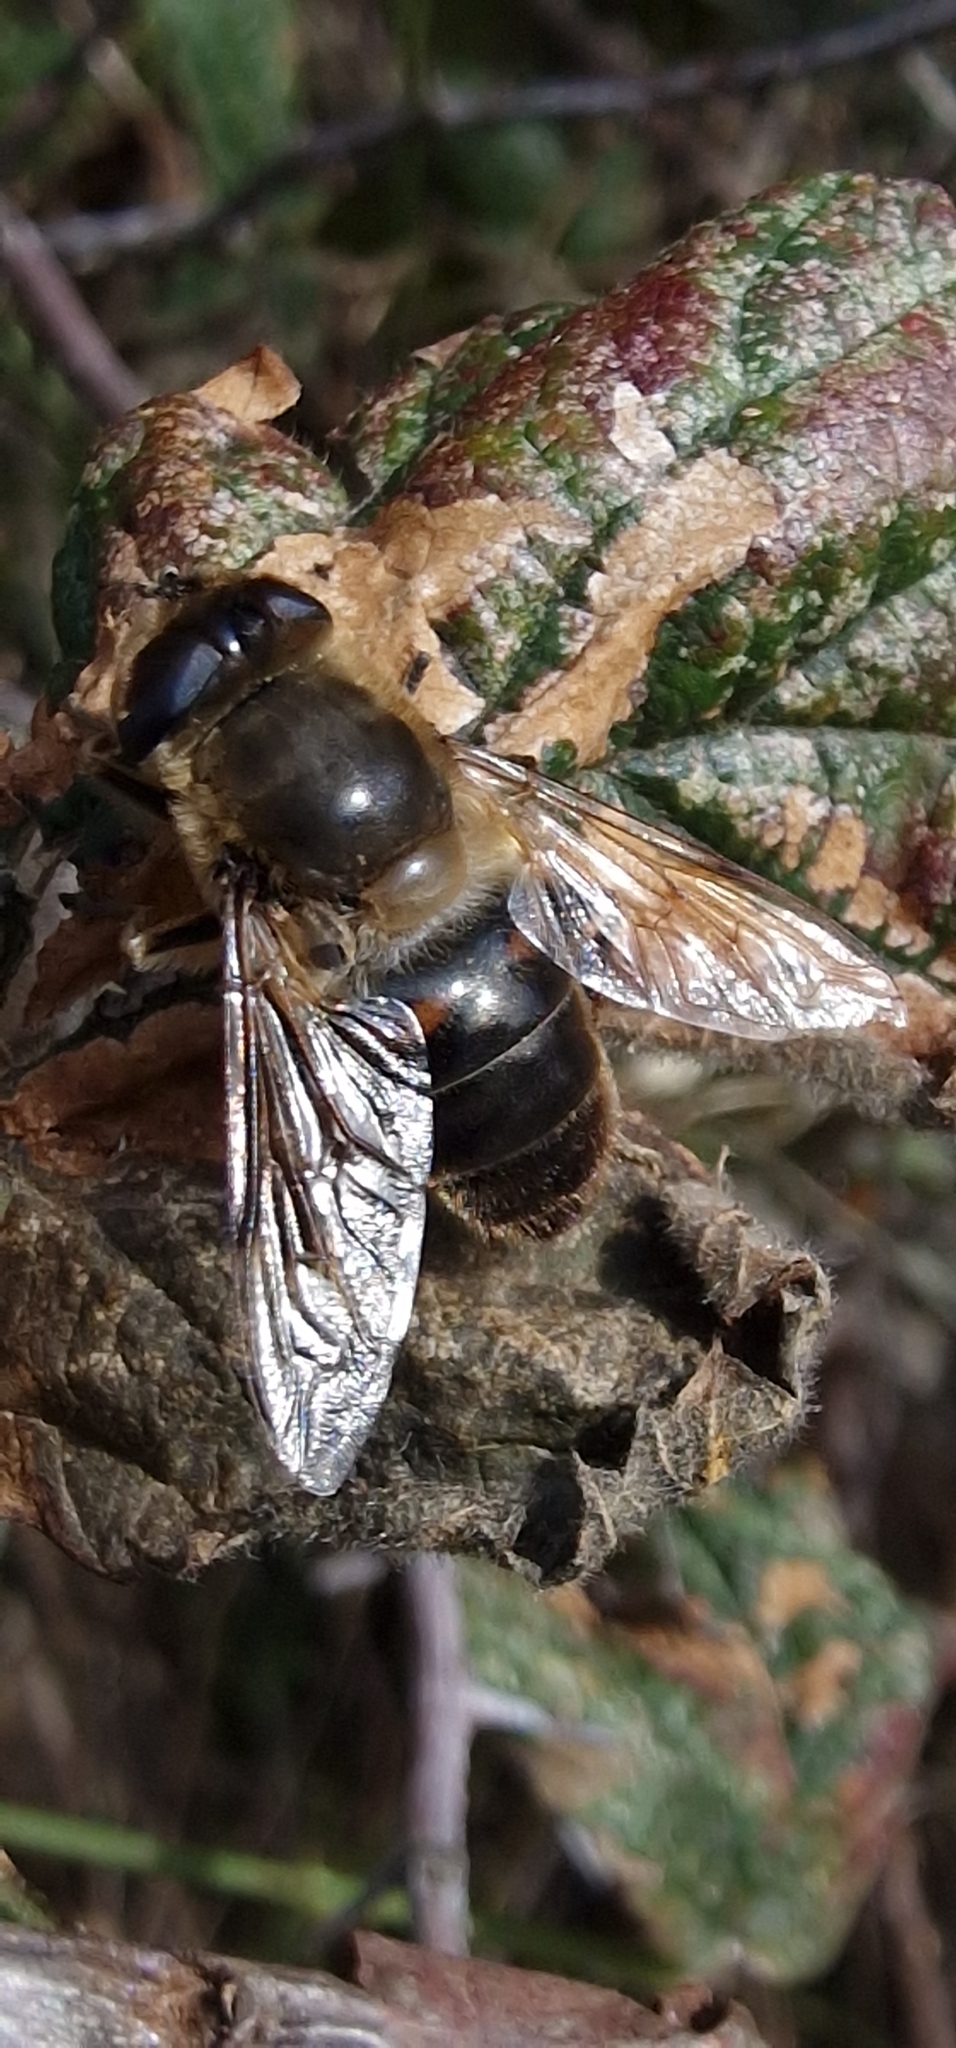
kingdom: Animalia
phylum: Arthropoda
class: Insecta
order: Diptera
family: Syrphidae
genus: Eristalis
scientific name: Eristalis tenax
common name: Drone fly
